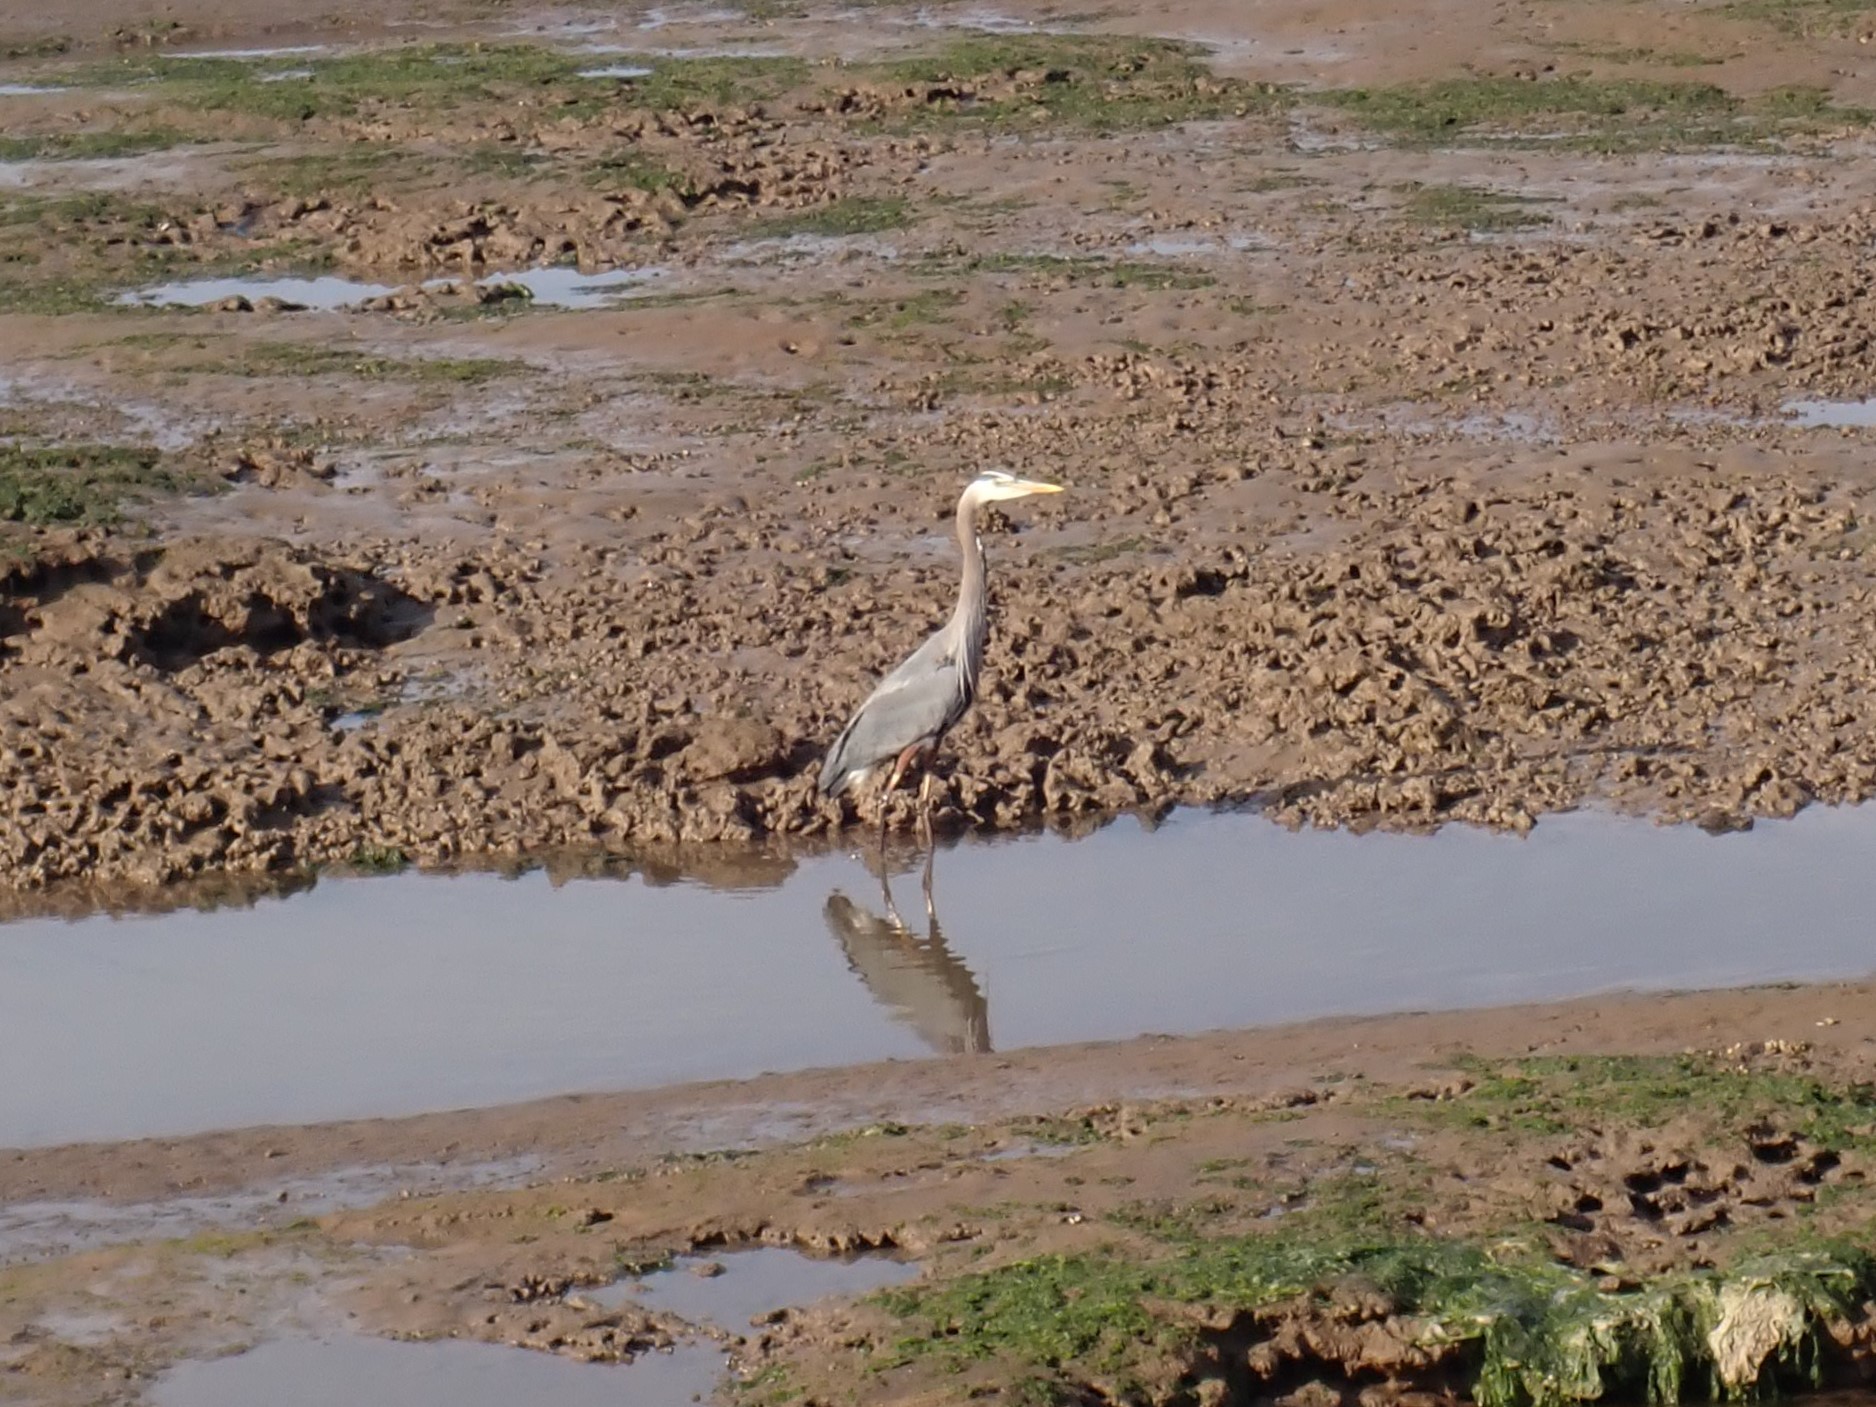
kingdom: Animalia
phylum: Chordata
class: Aves
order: Pelecaniformes
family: Ardeidae
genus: Ardea
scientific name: Ardea herodias
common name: Great blue heron
